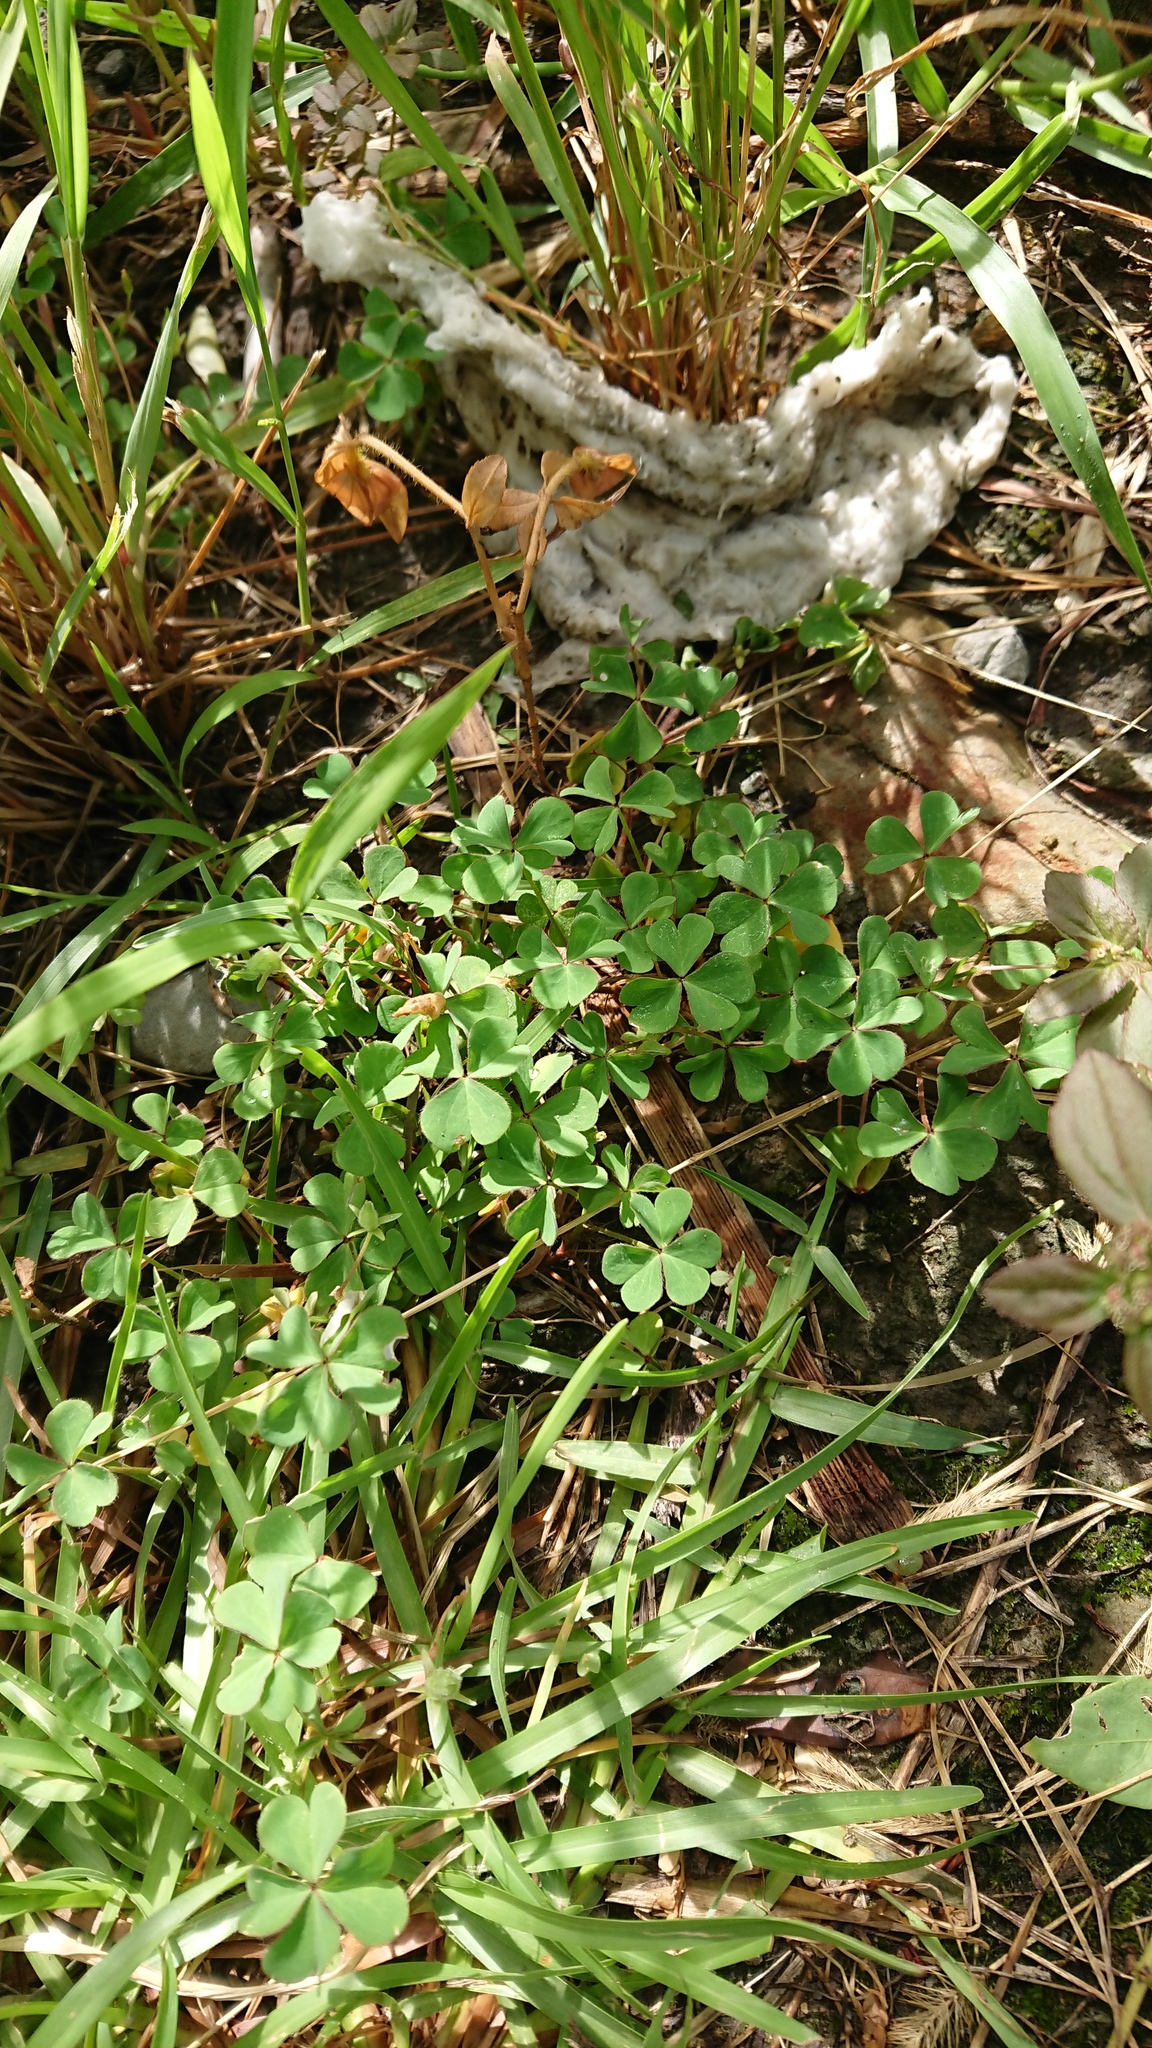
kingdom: Plantae
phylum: Tracheophyta
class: Magnoliopsida
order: Oxalidales
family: Oxalidaceae
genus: Oxalis
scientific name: Oxalis corniculata
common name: Procumbent yellow-sorrel
